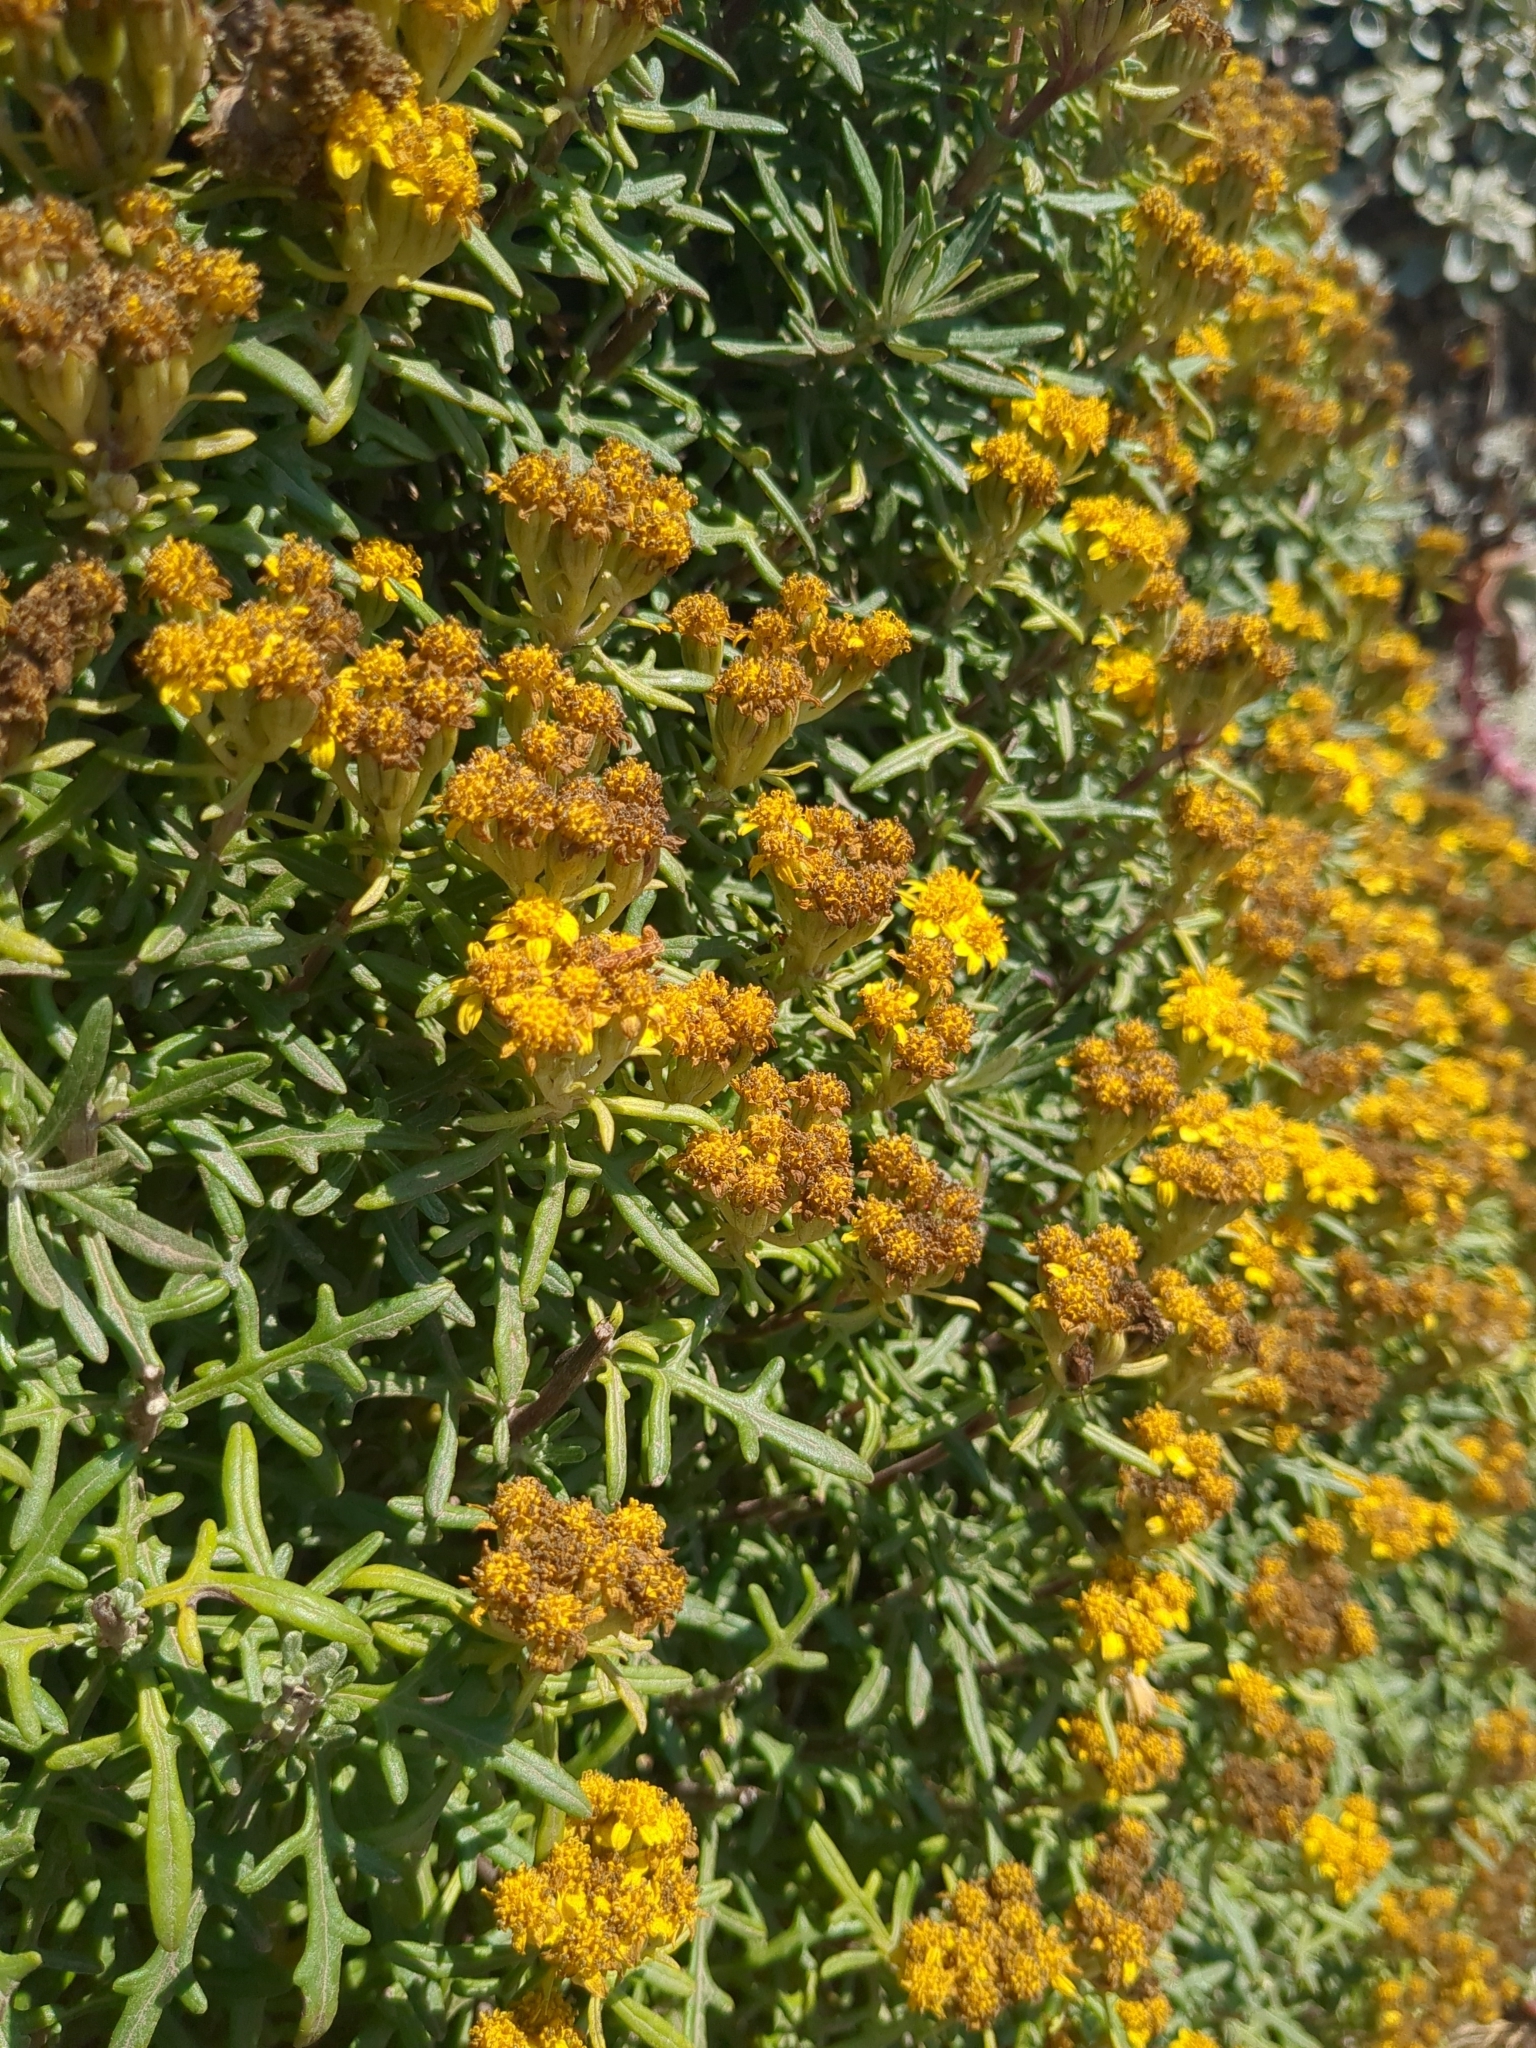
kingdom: Plantae
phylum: Tracheophyta
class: Magnoliopsida
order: Asterales
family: Asteraceae
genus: Eriophyllum
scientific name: Eriophyllum staechadifolium
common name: Lizardtail
